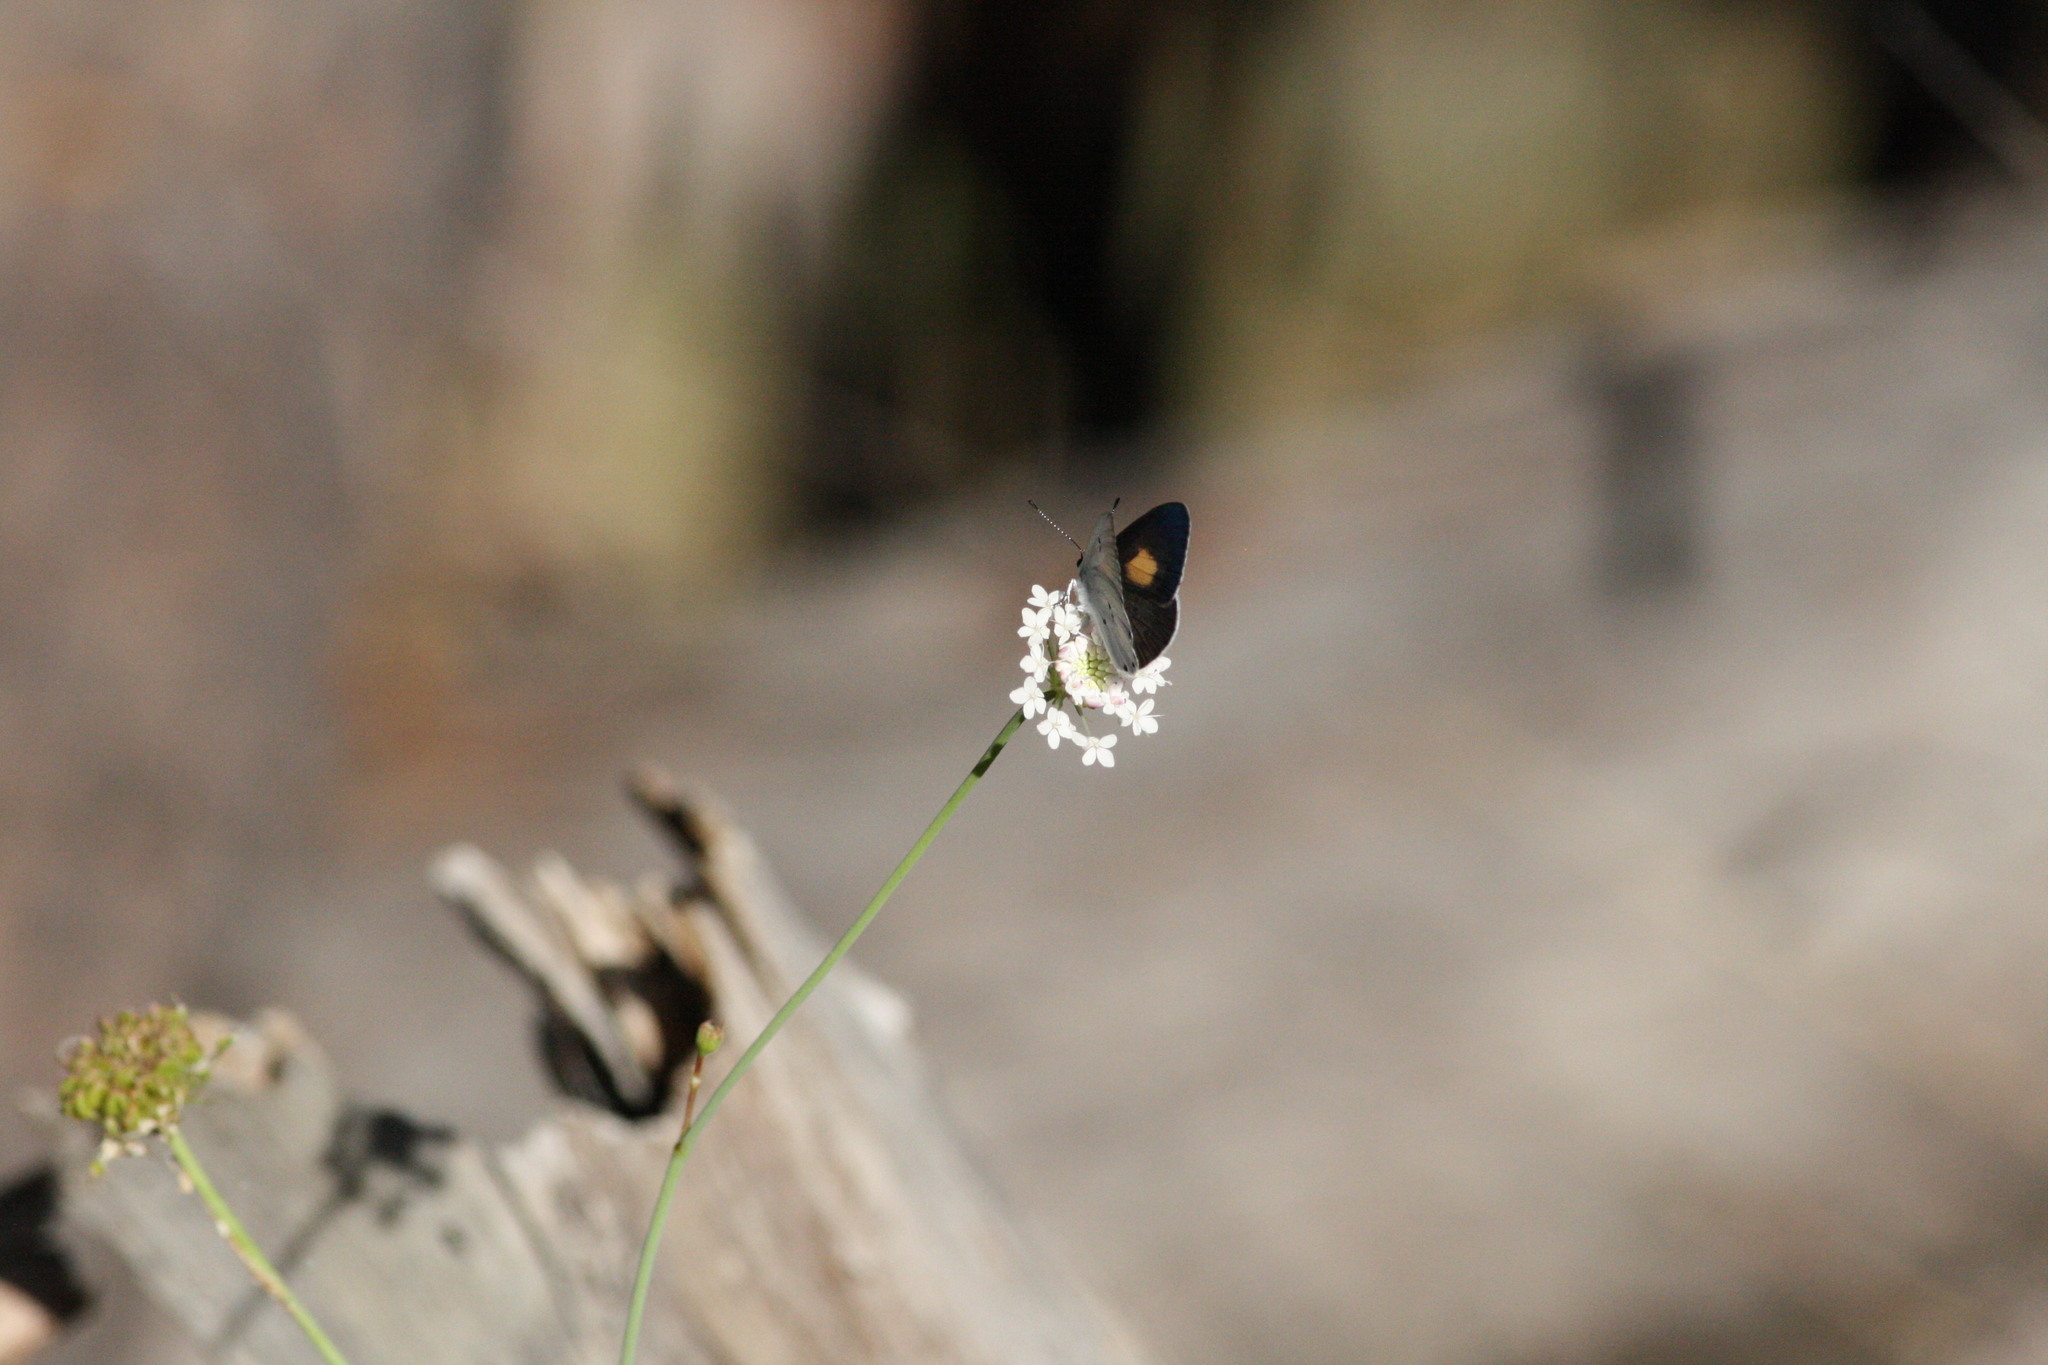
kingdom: Animalia
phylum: Arthropoda
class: Insecta
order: Lepidoptera
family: Lycaenidae
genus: Candalides
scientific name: Candalides xanthospilos
